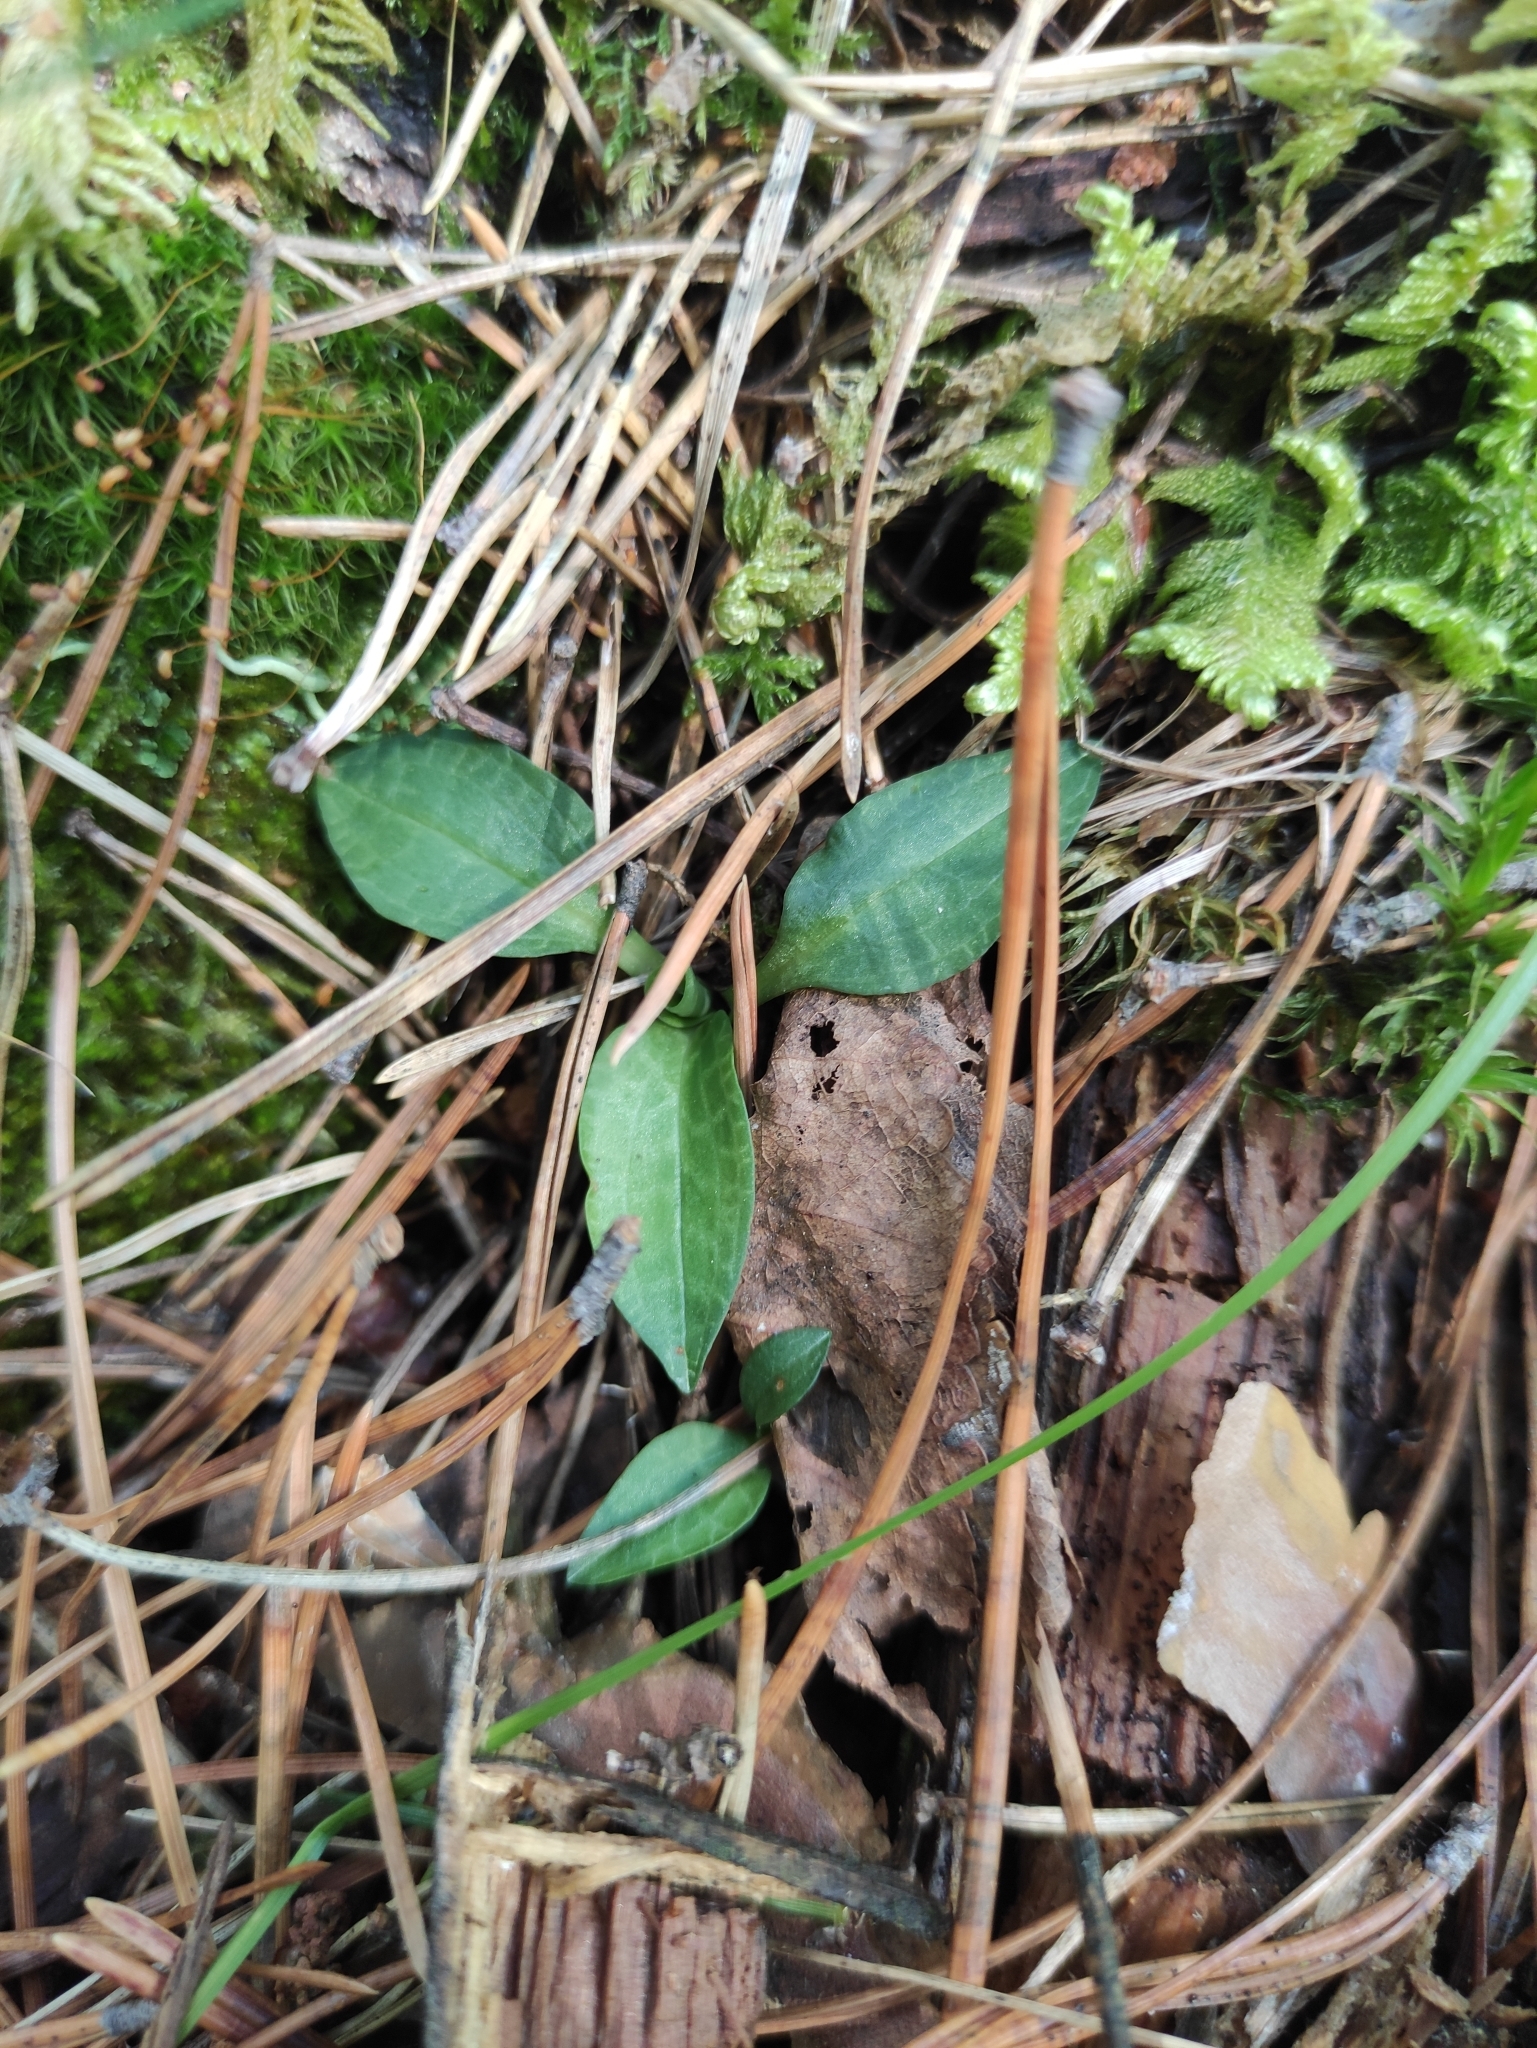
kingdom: Plantae
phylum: Tracheophyta
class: Liliopsida
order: Asparagales
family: Orchidaceae
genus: Goodyera
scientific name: Goodyera repens
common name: Creeping lady's-tresses
